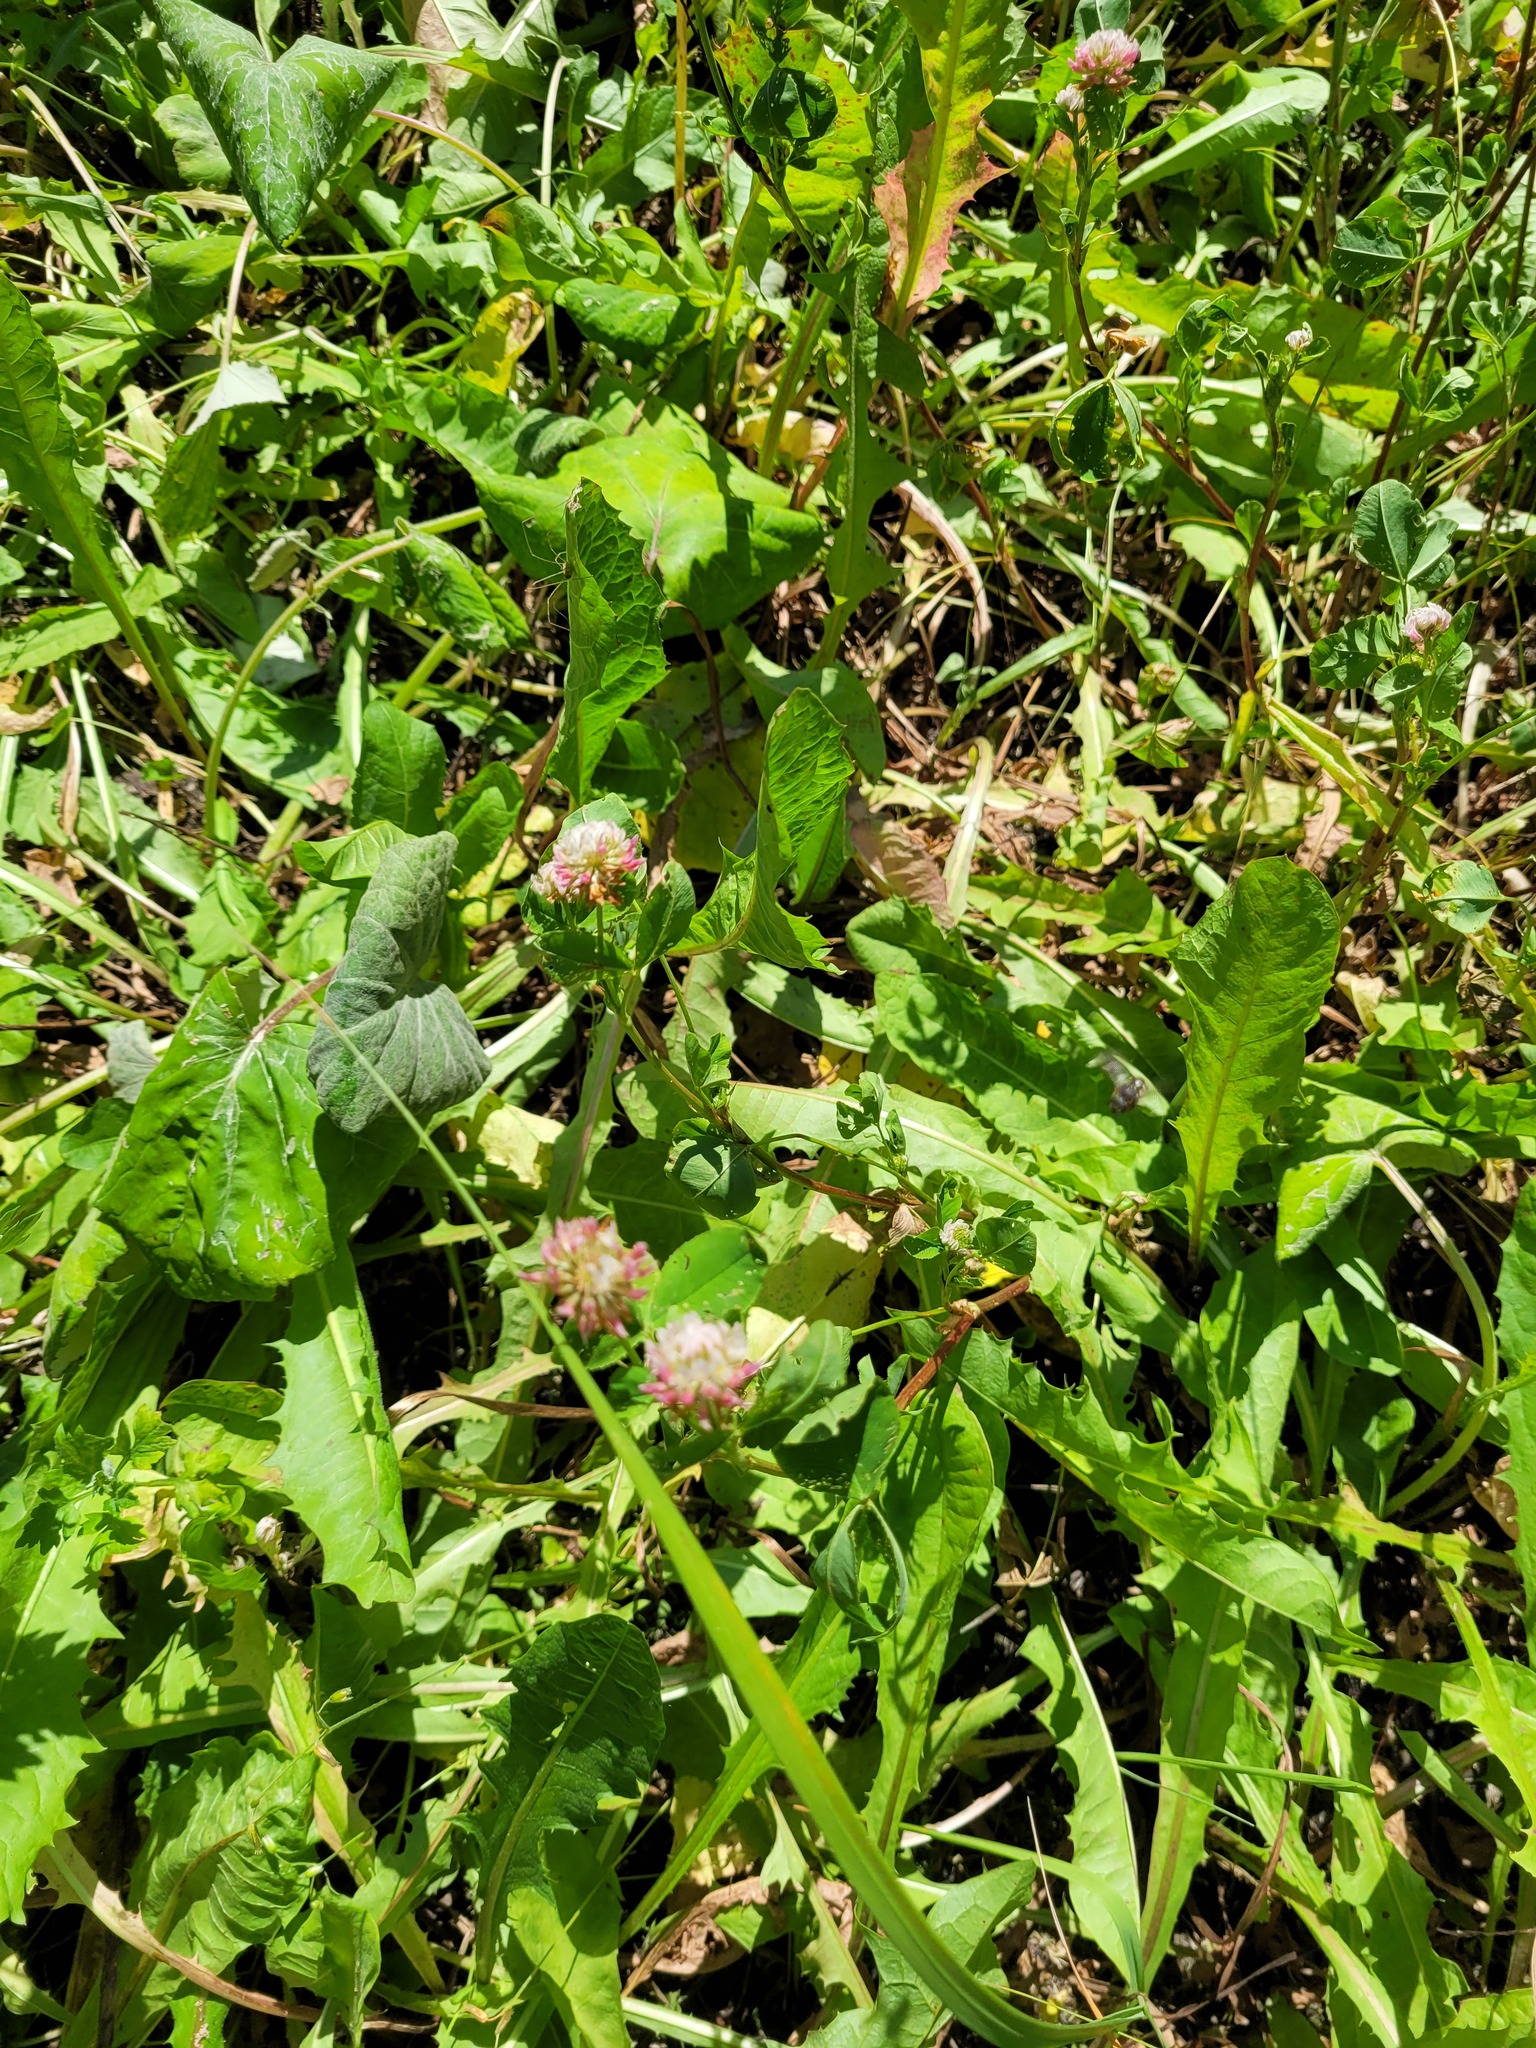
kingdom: Plantae
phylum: Tracheophyta
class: Magnoliopsida
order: Fabales
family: Fabaceae
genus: Trifolium
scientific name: Trifolium hybridum
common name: Alsike clover
